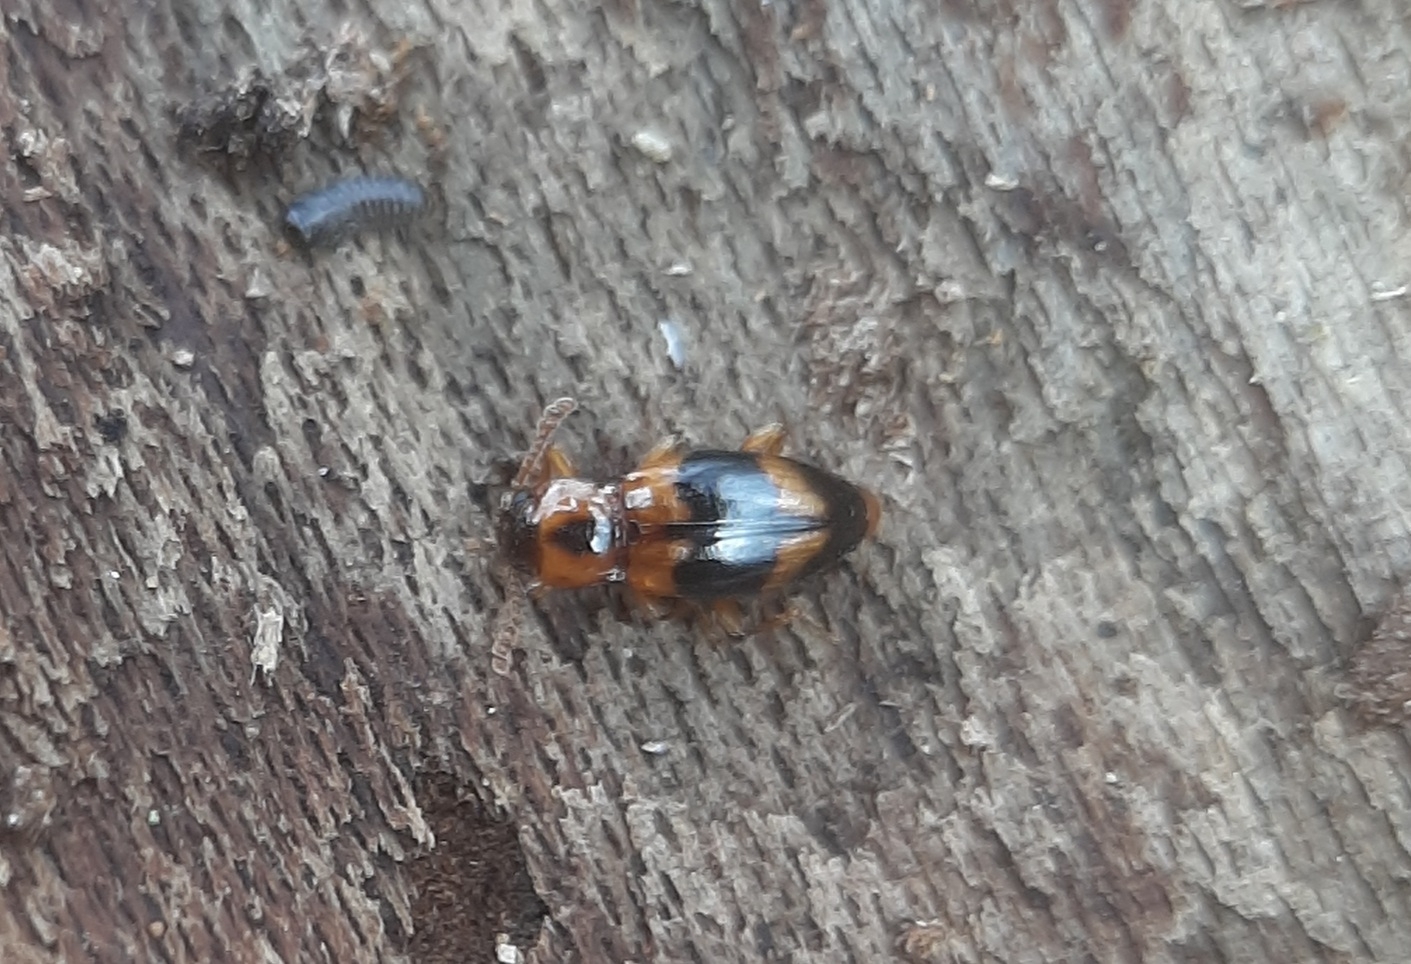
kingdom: Animalia
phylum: Arthropoda
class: Insecta
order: Coleoptera
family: Endomychidae
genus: Phymaphora
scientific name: Phymaphora pulchella
